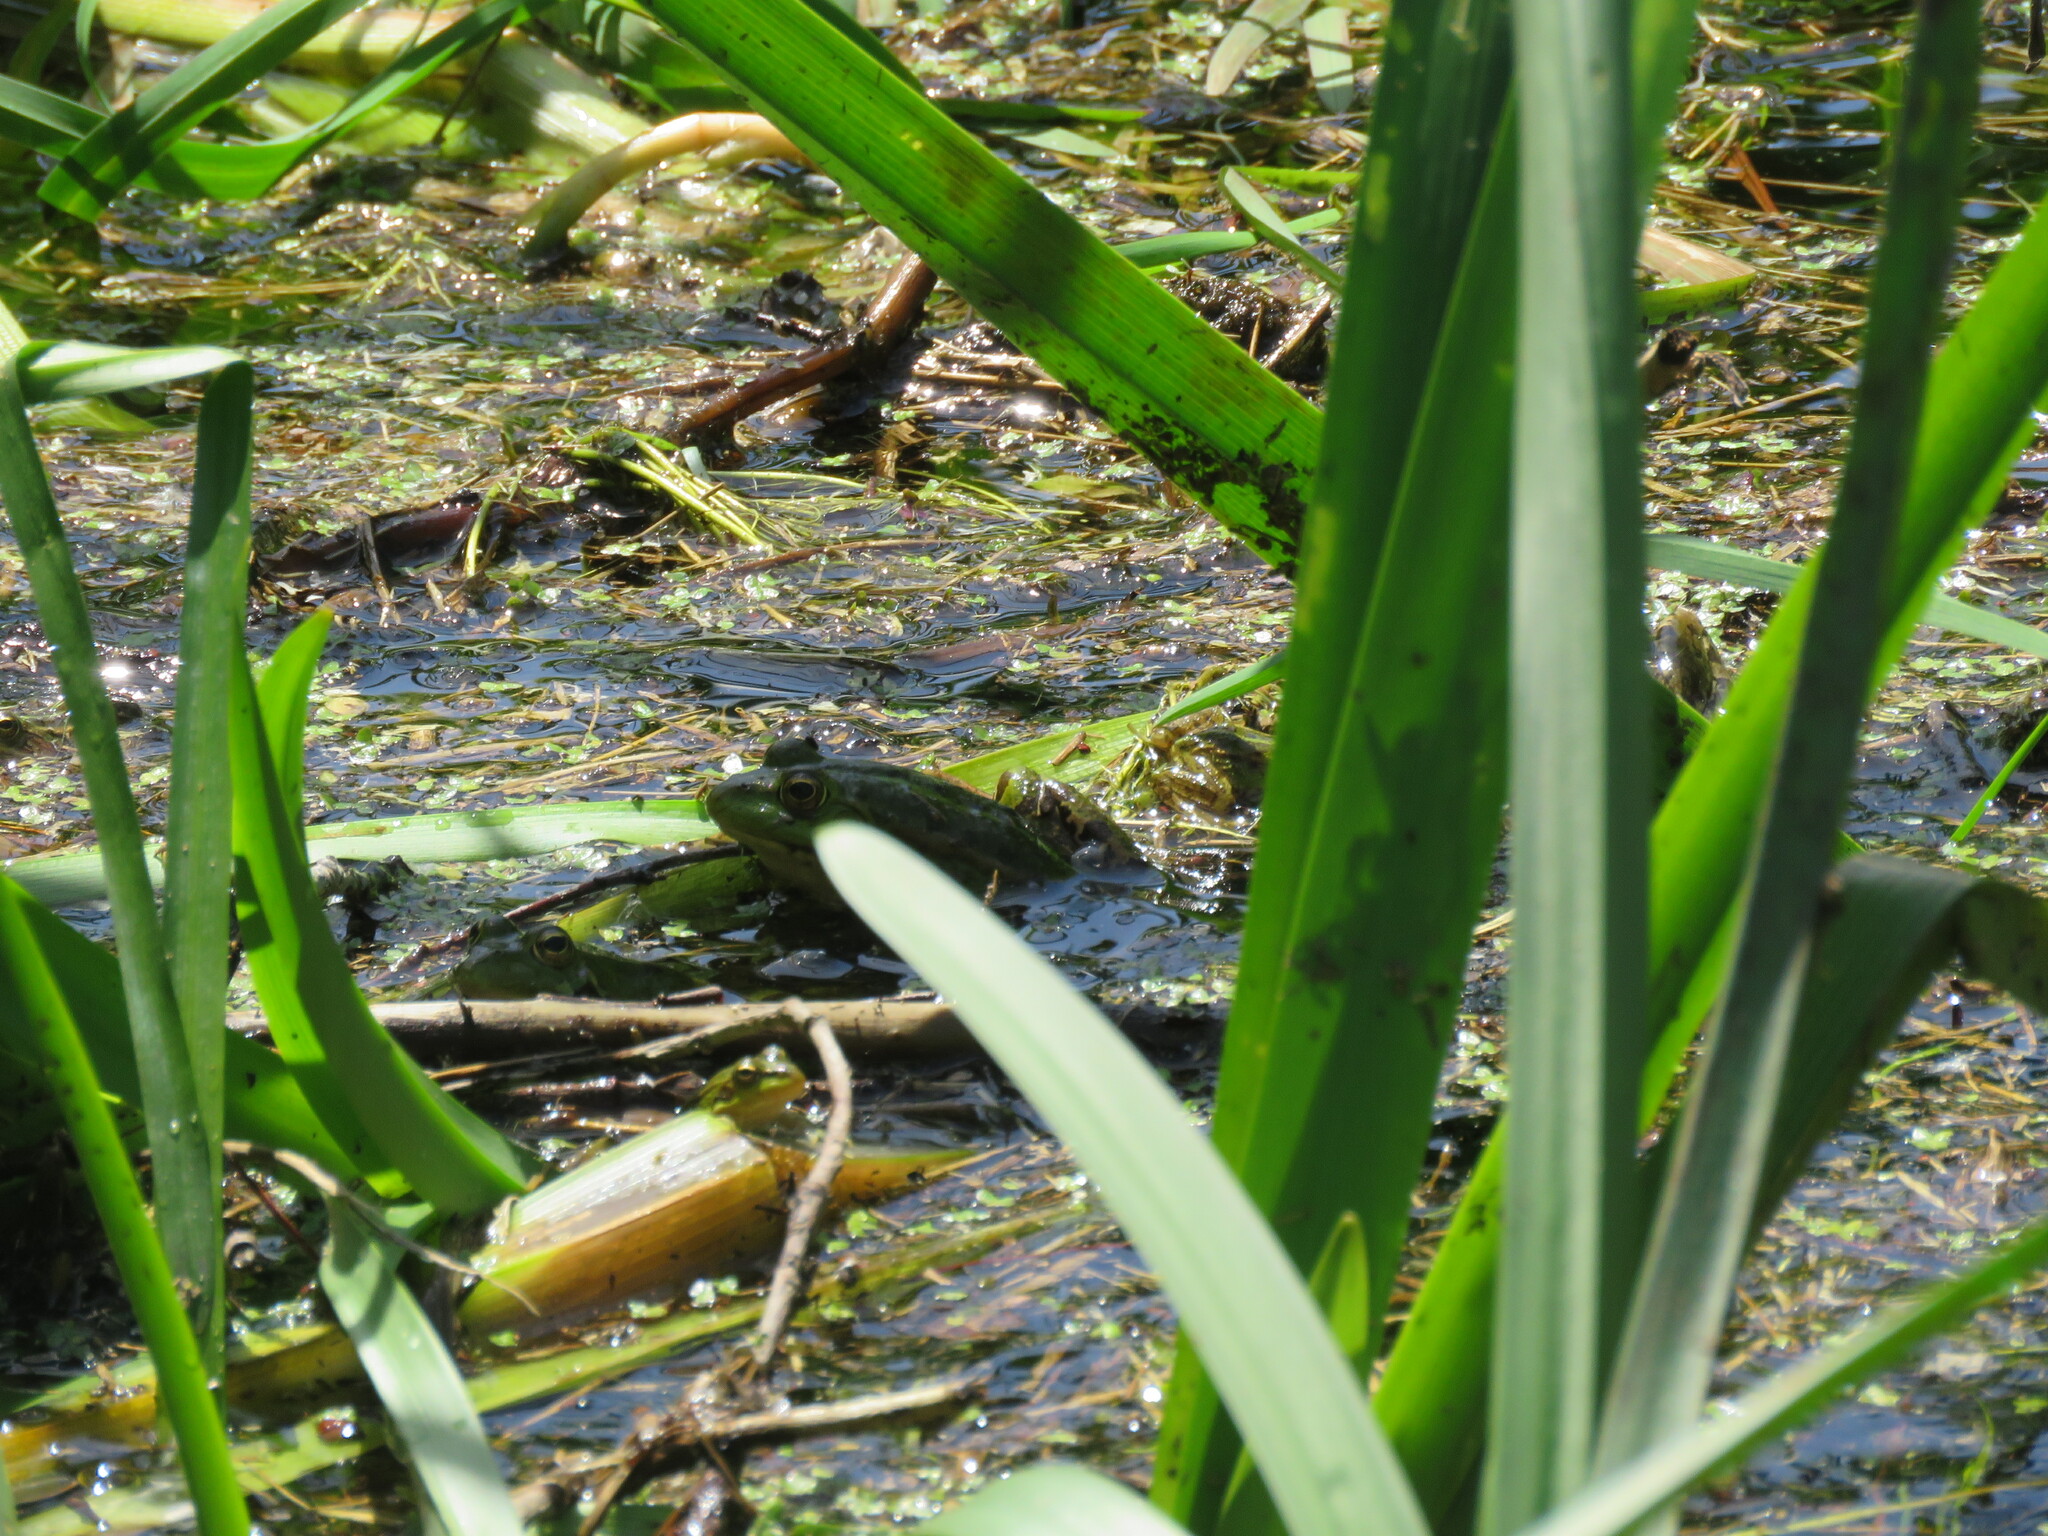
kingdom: Animalia
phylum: Chordata
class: Amphibia
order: Anura
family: Ranidae
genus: Pelophylax
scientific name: Pelophylax perezi
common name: Perez's frog
